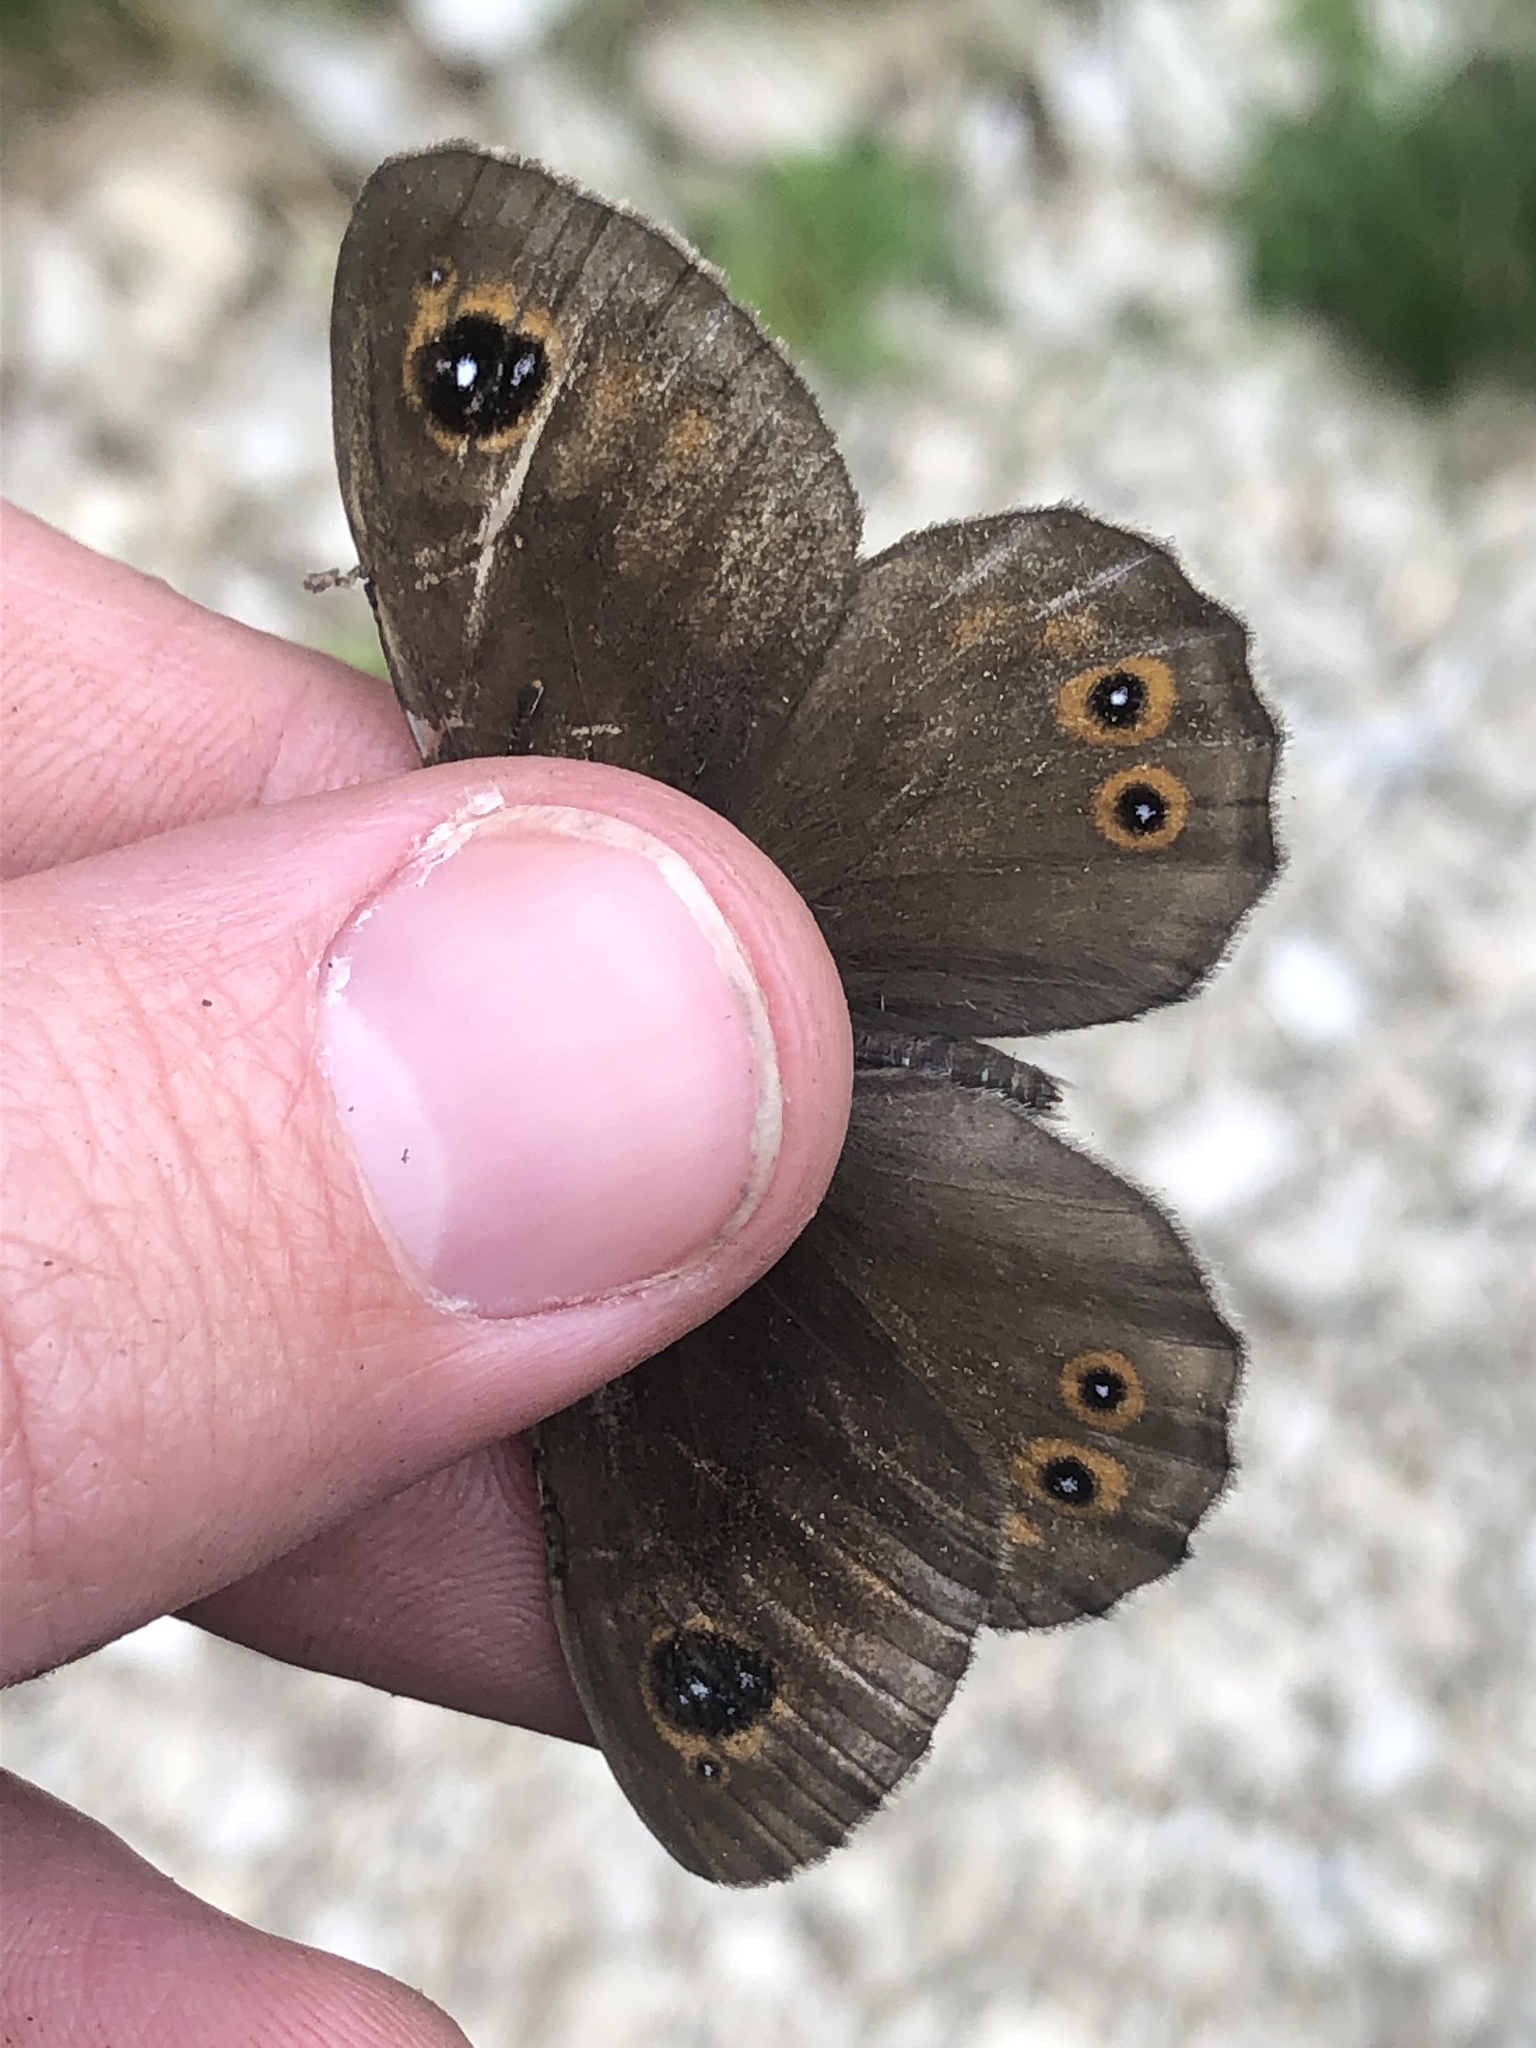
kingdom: Animalia
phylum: Arthropoda
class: Insecta
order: Lepidoptera
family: Nymphalidae
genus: Pararge
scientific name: Pararge Lasiommata maera
